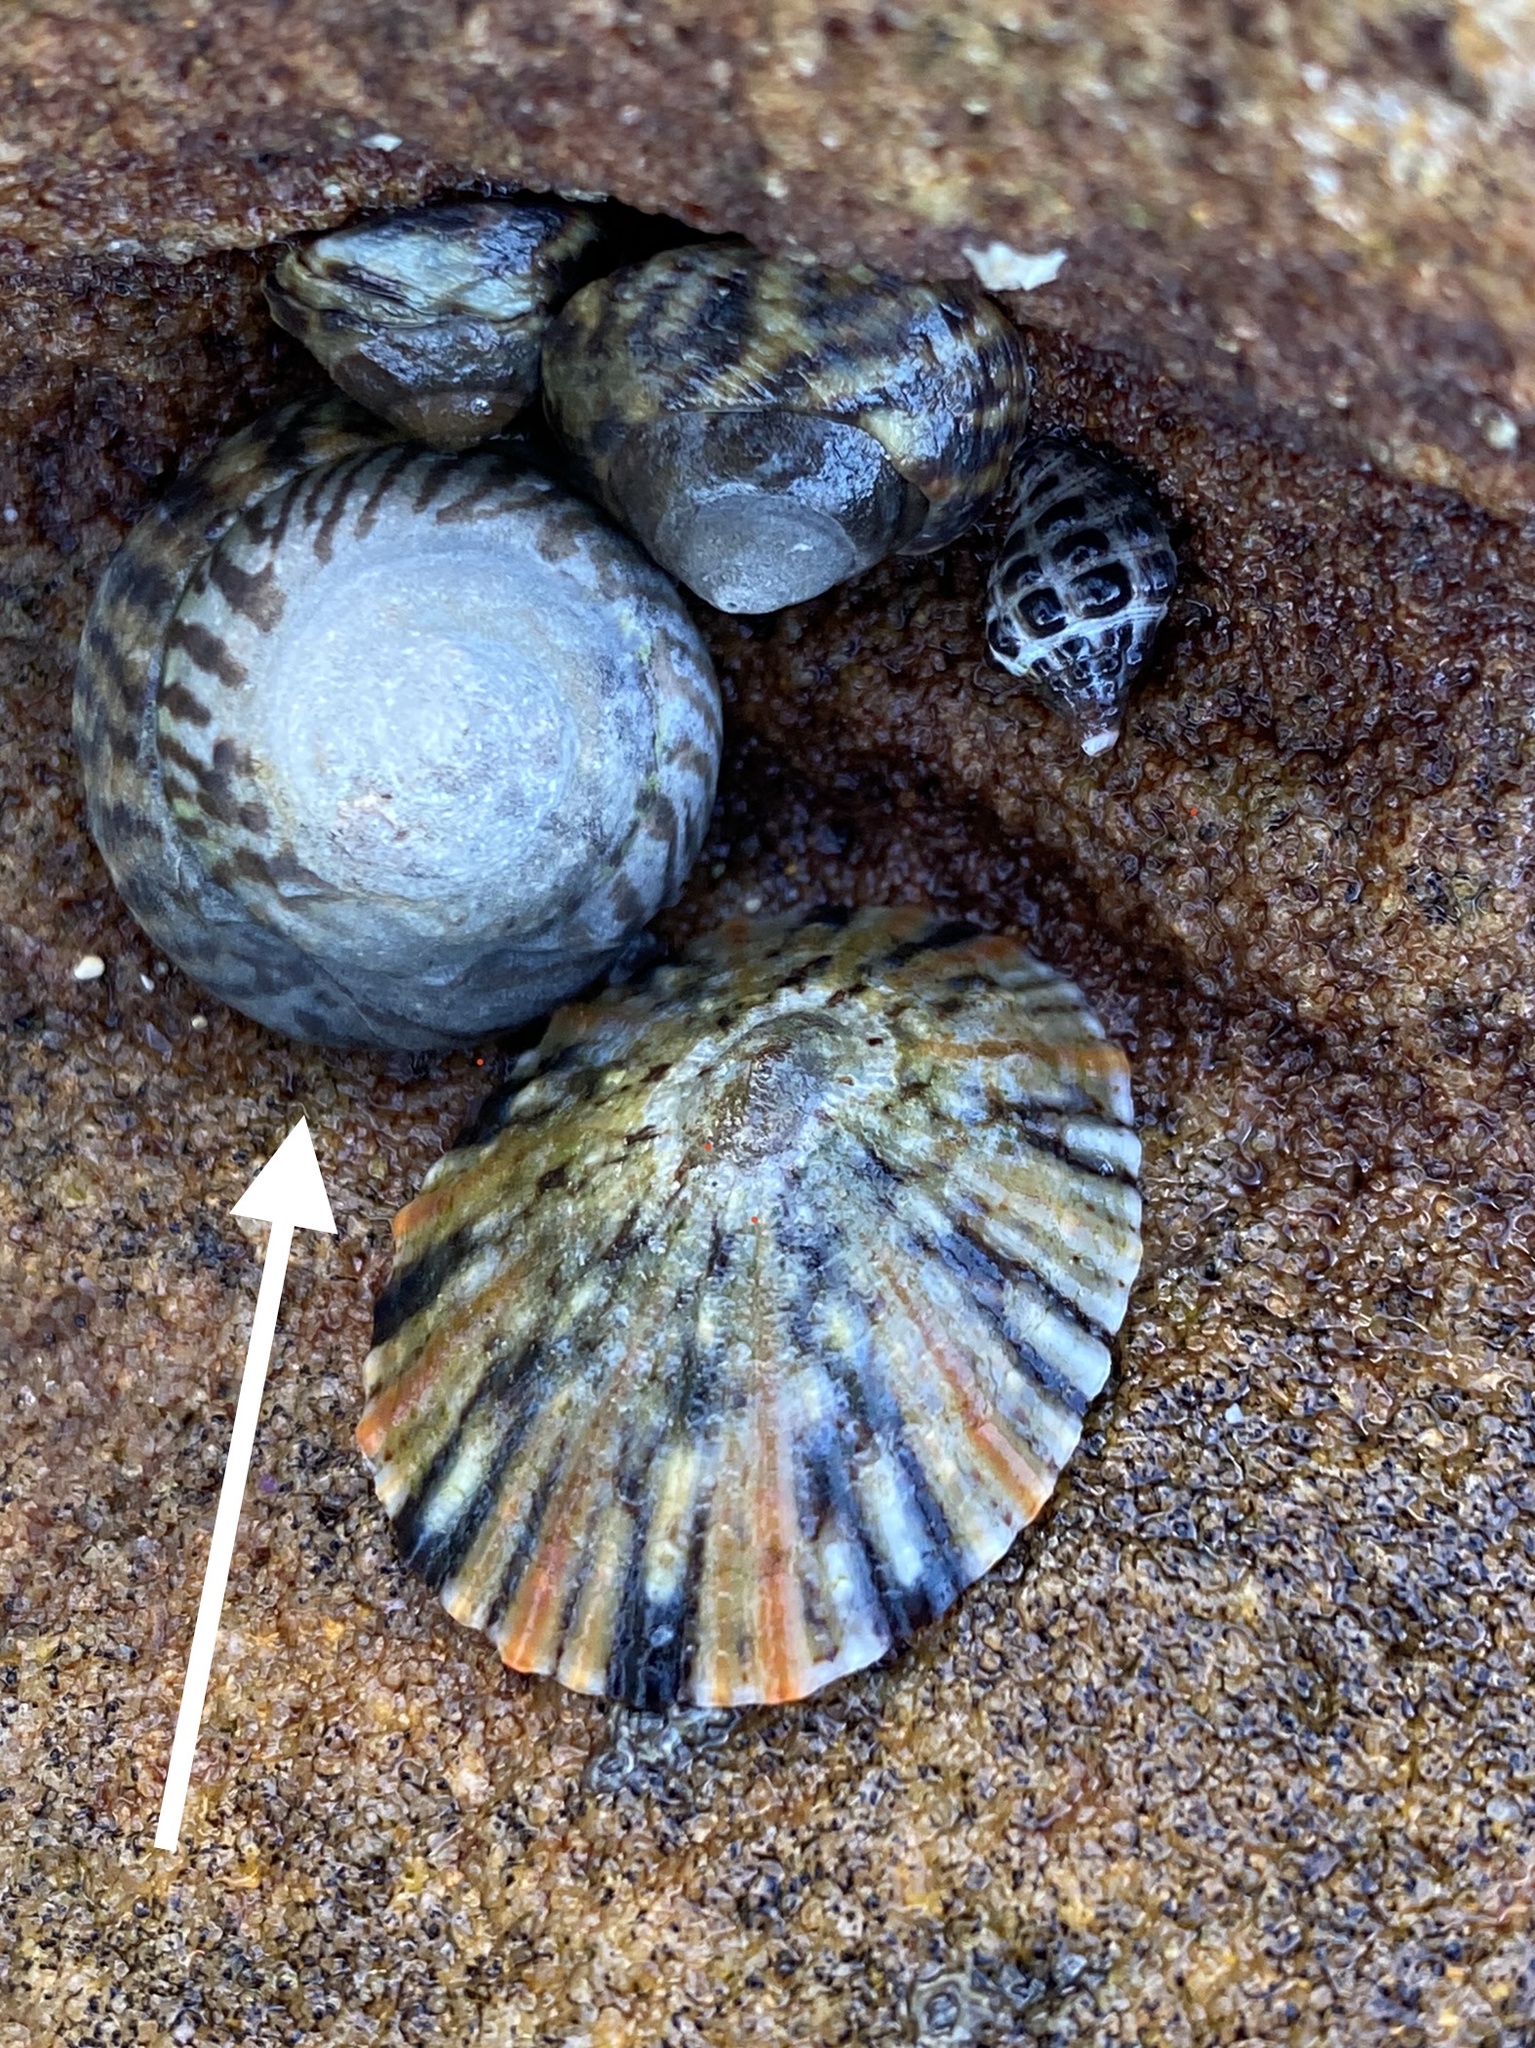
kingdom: Animalia
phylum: Mollusca
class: Gastropoda
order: Littorinimorpha
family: Littorinidae
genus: Bembicium
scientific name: Bembicium nanum
